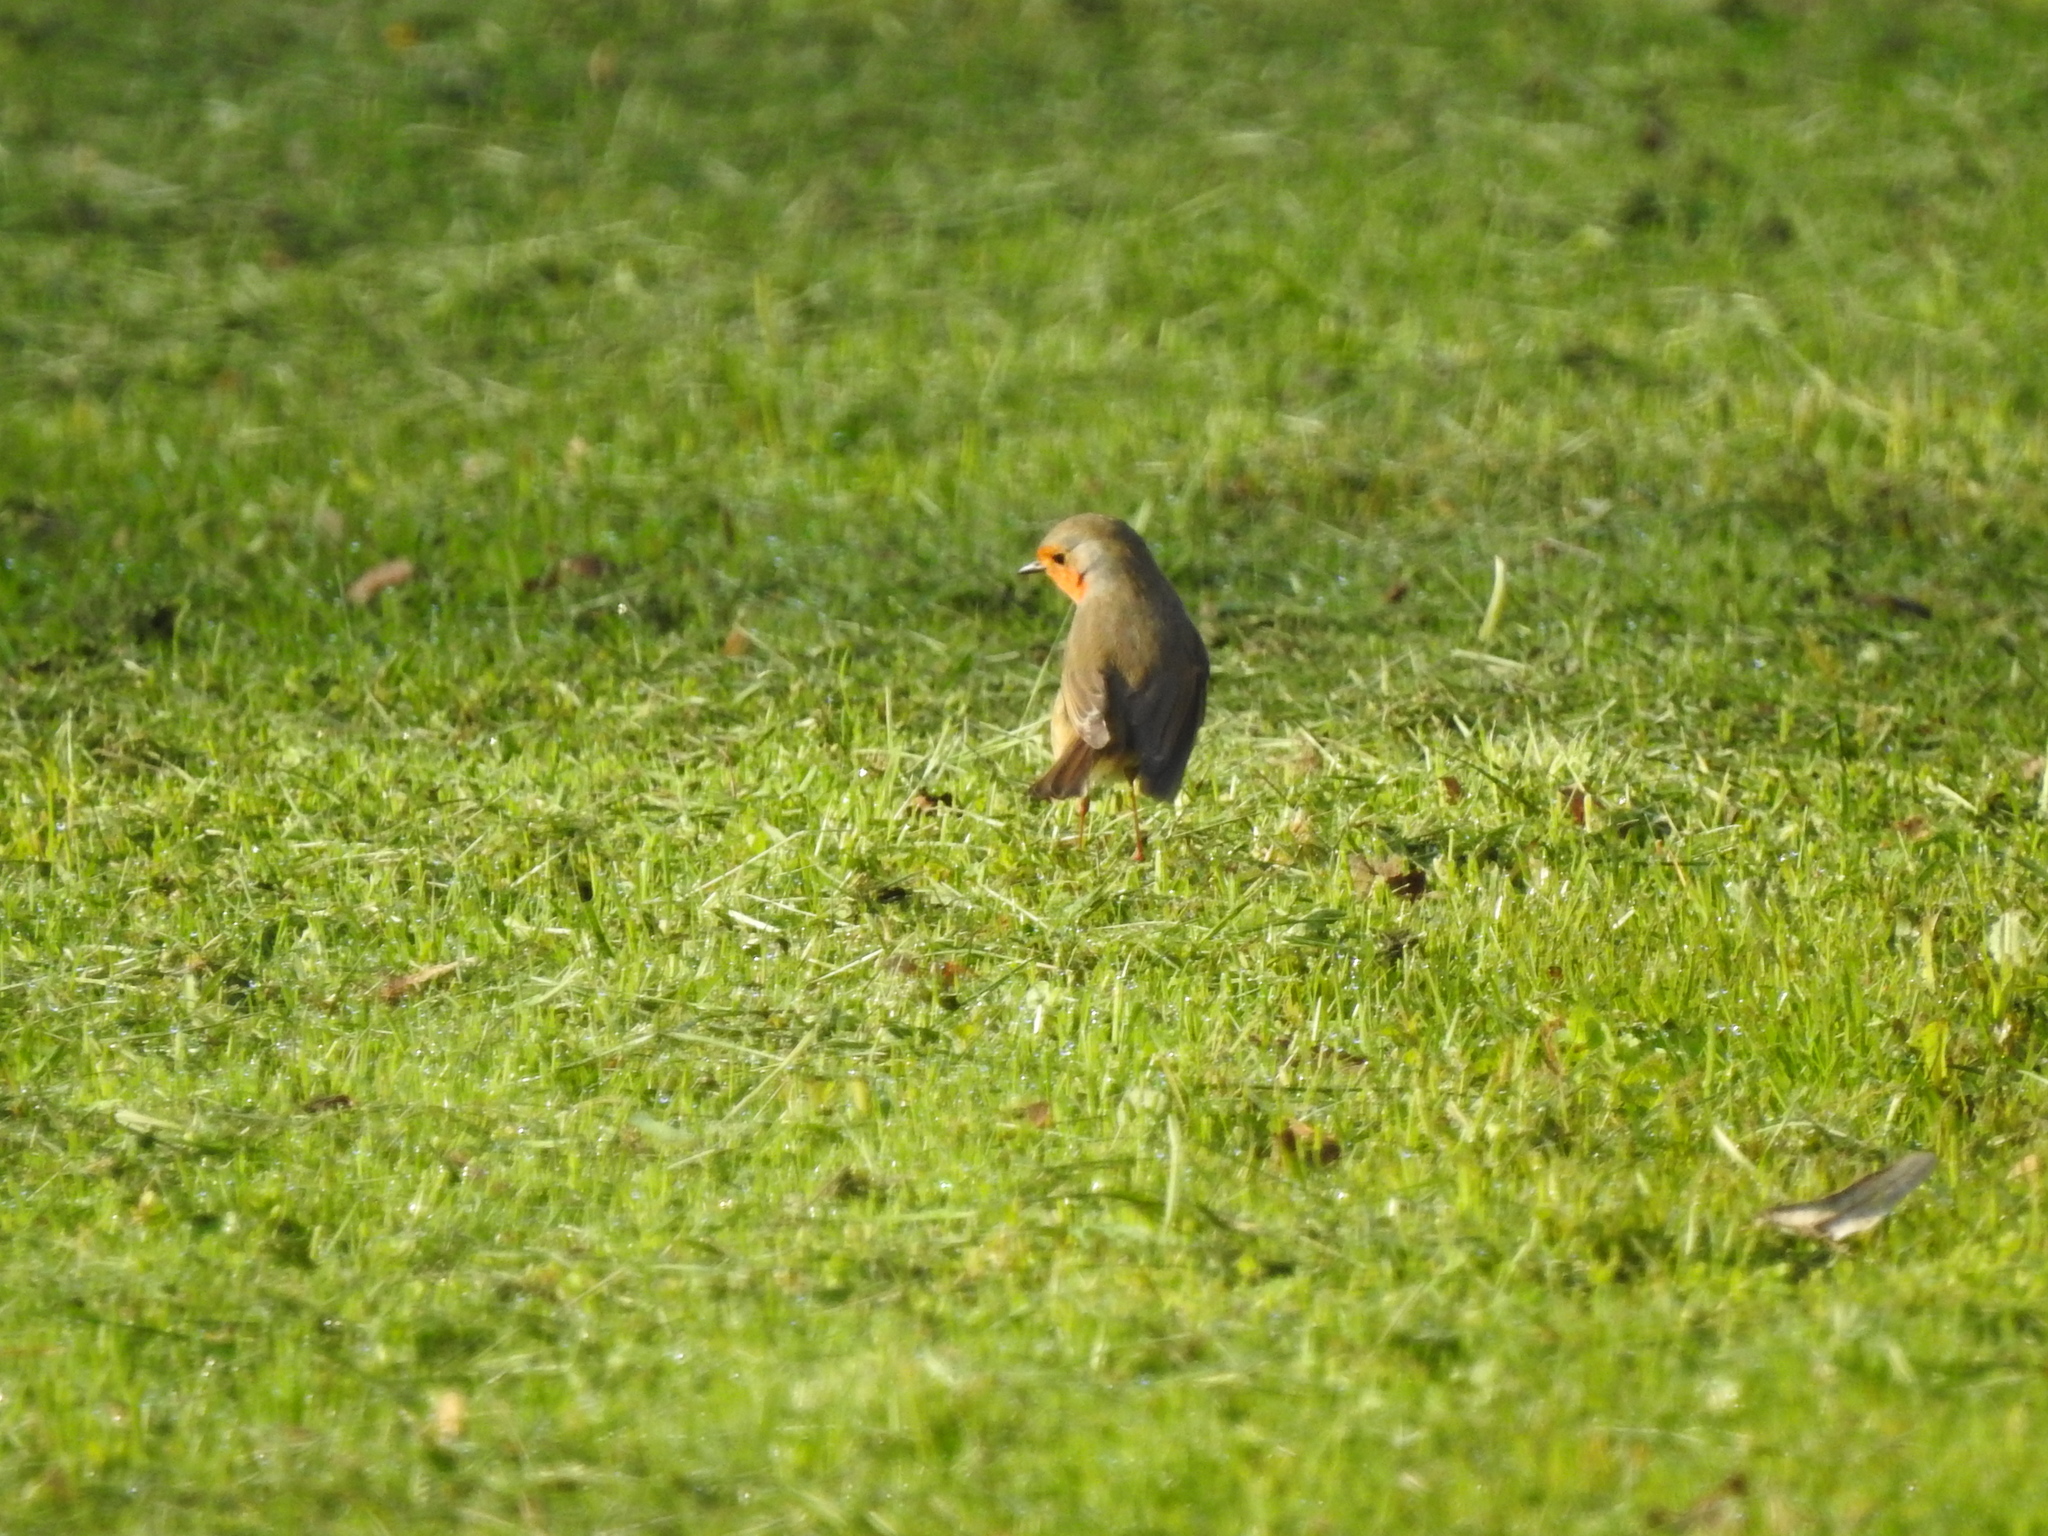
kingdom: Animalia
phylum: Chordata
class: Aves
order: Passeriformes
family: Muscicapidae
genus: Erithacus
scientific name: Erithacus rubecula
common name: European robin
